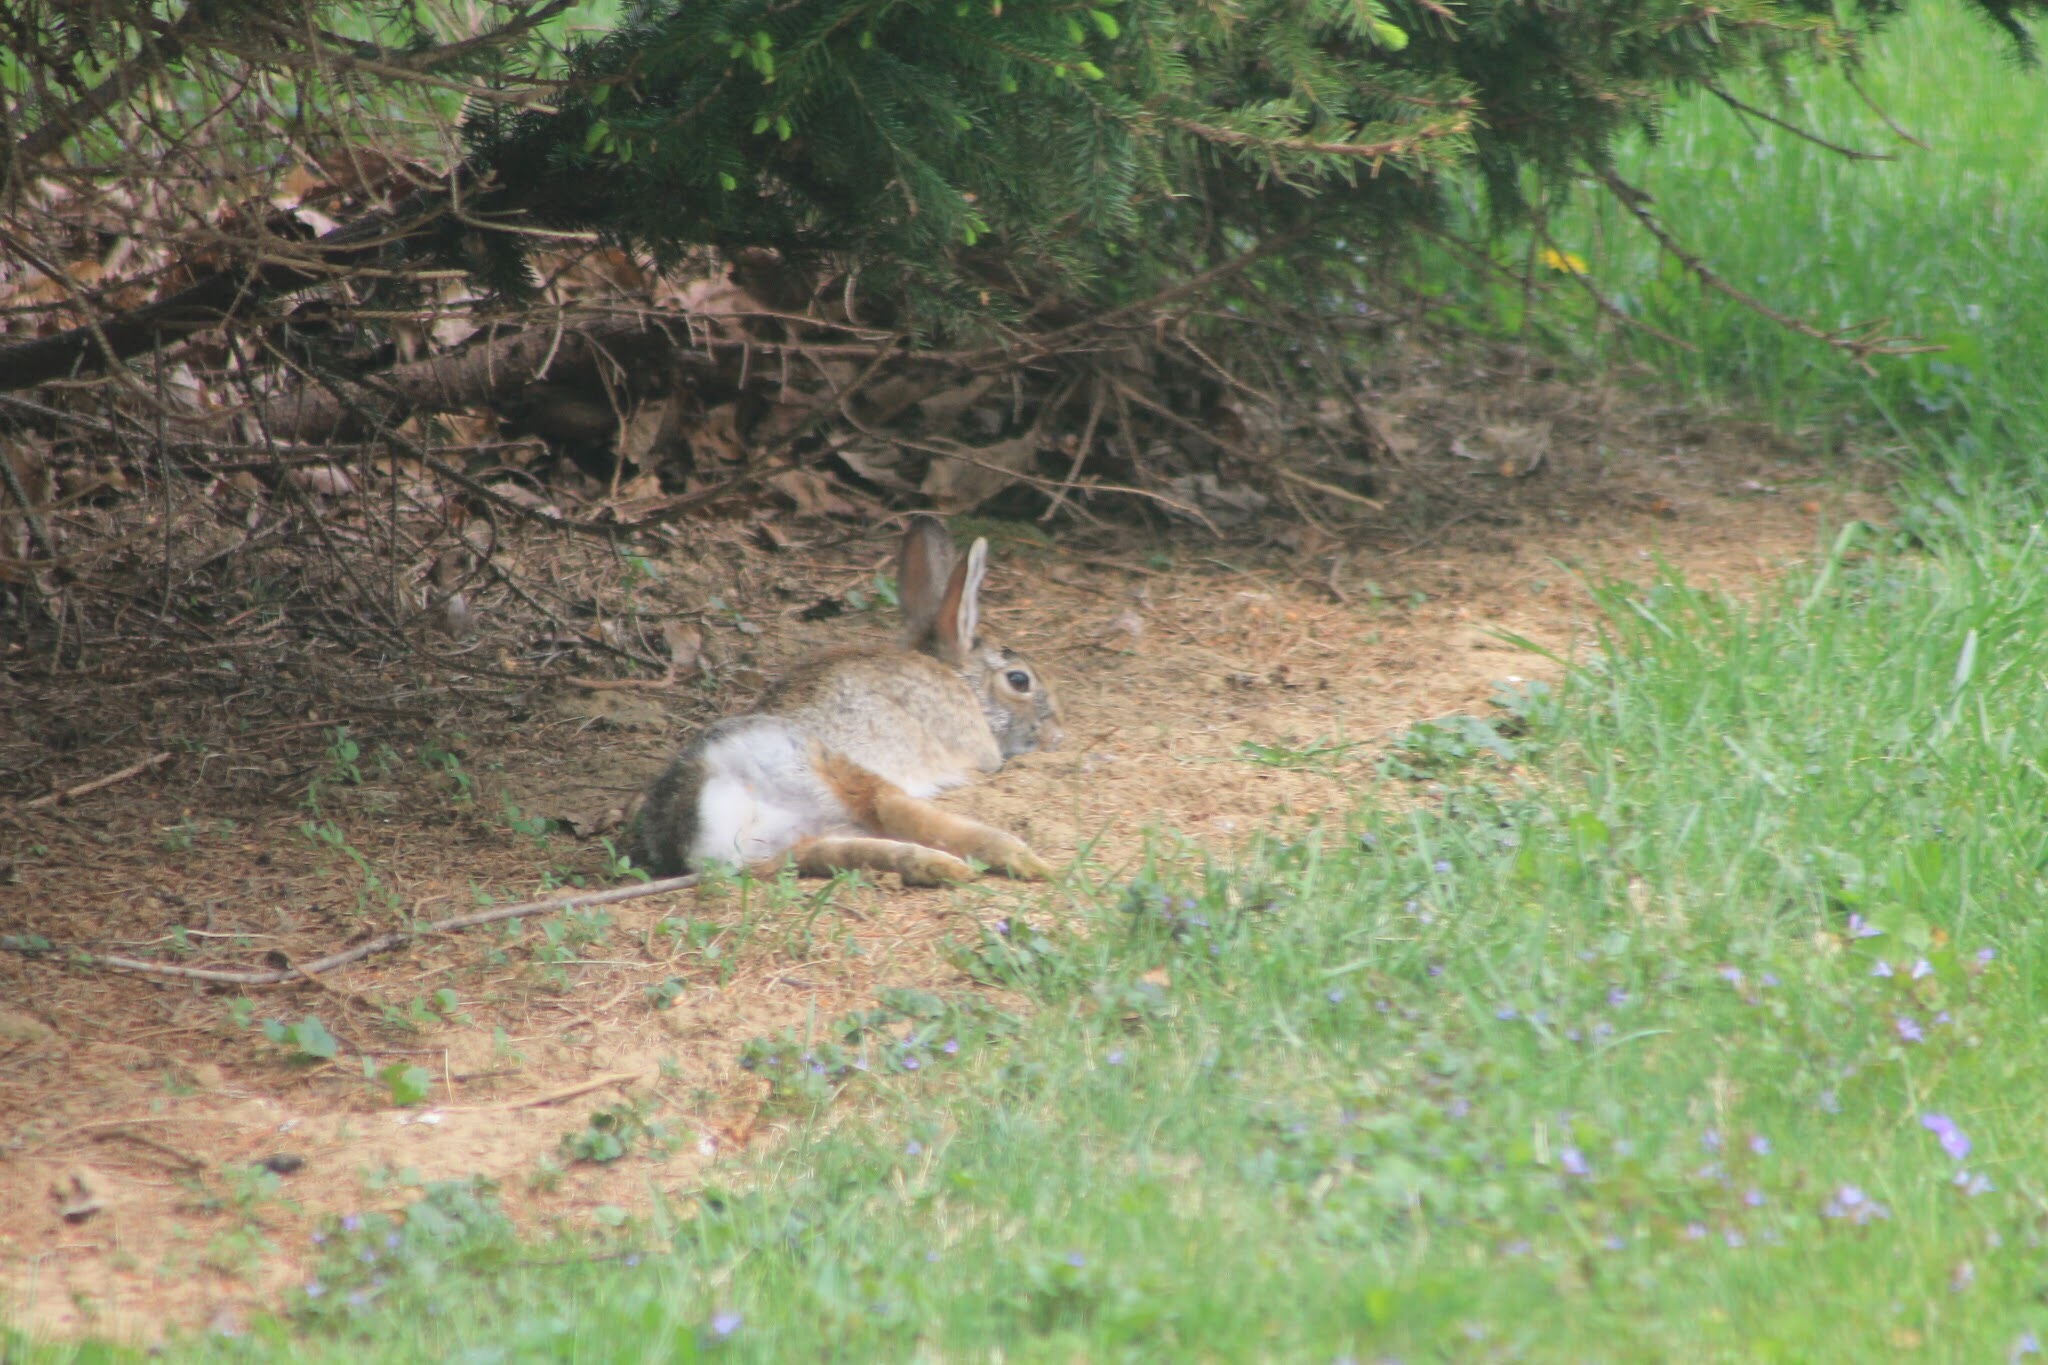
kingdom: Animalia
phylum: Chordata
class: Mammalia
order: Lagomorpha
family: Leporidae
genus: Sylvilagus
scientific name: Sylvilagus floridanus
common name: Eastern cottontail
